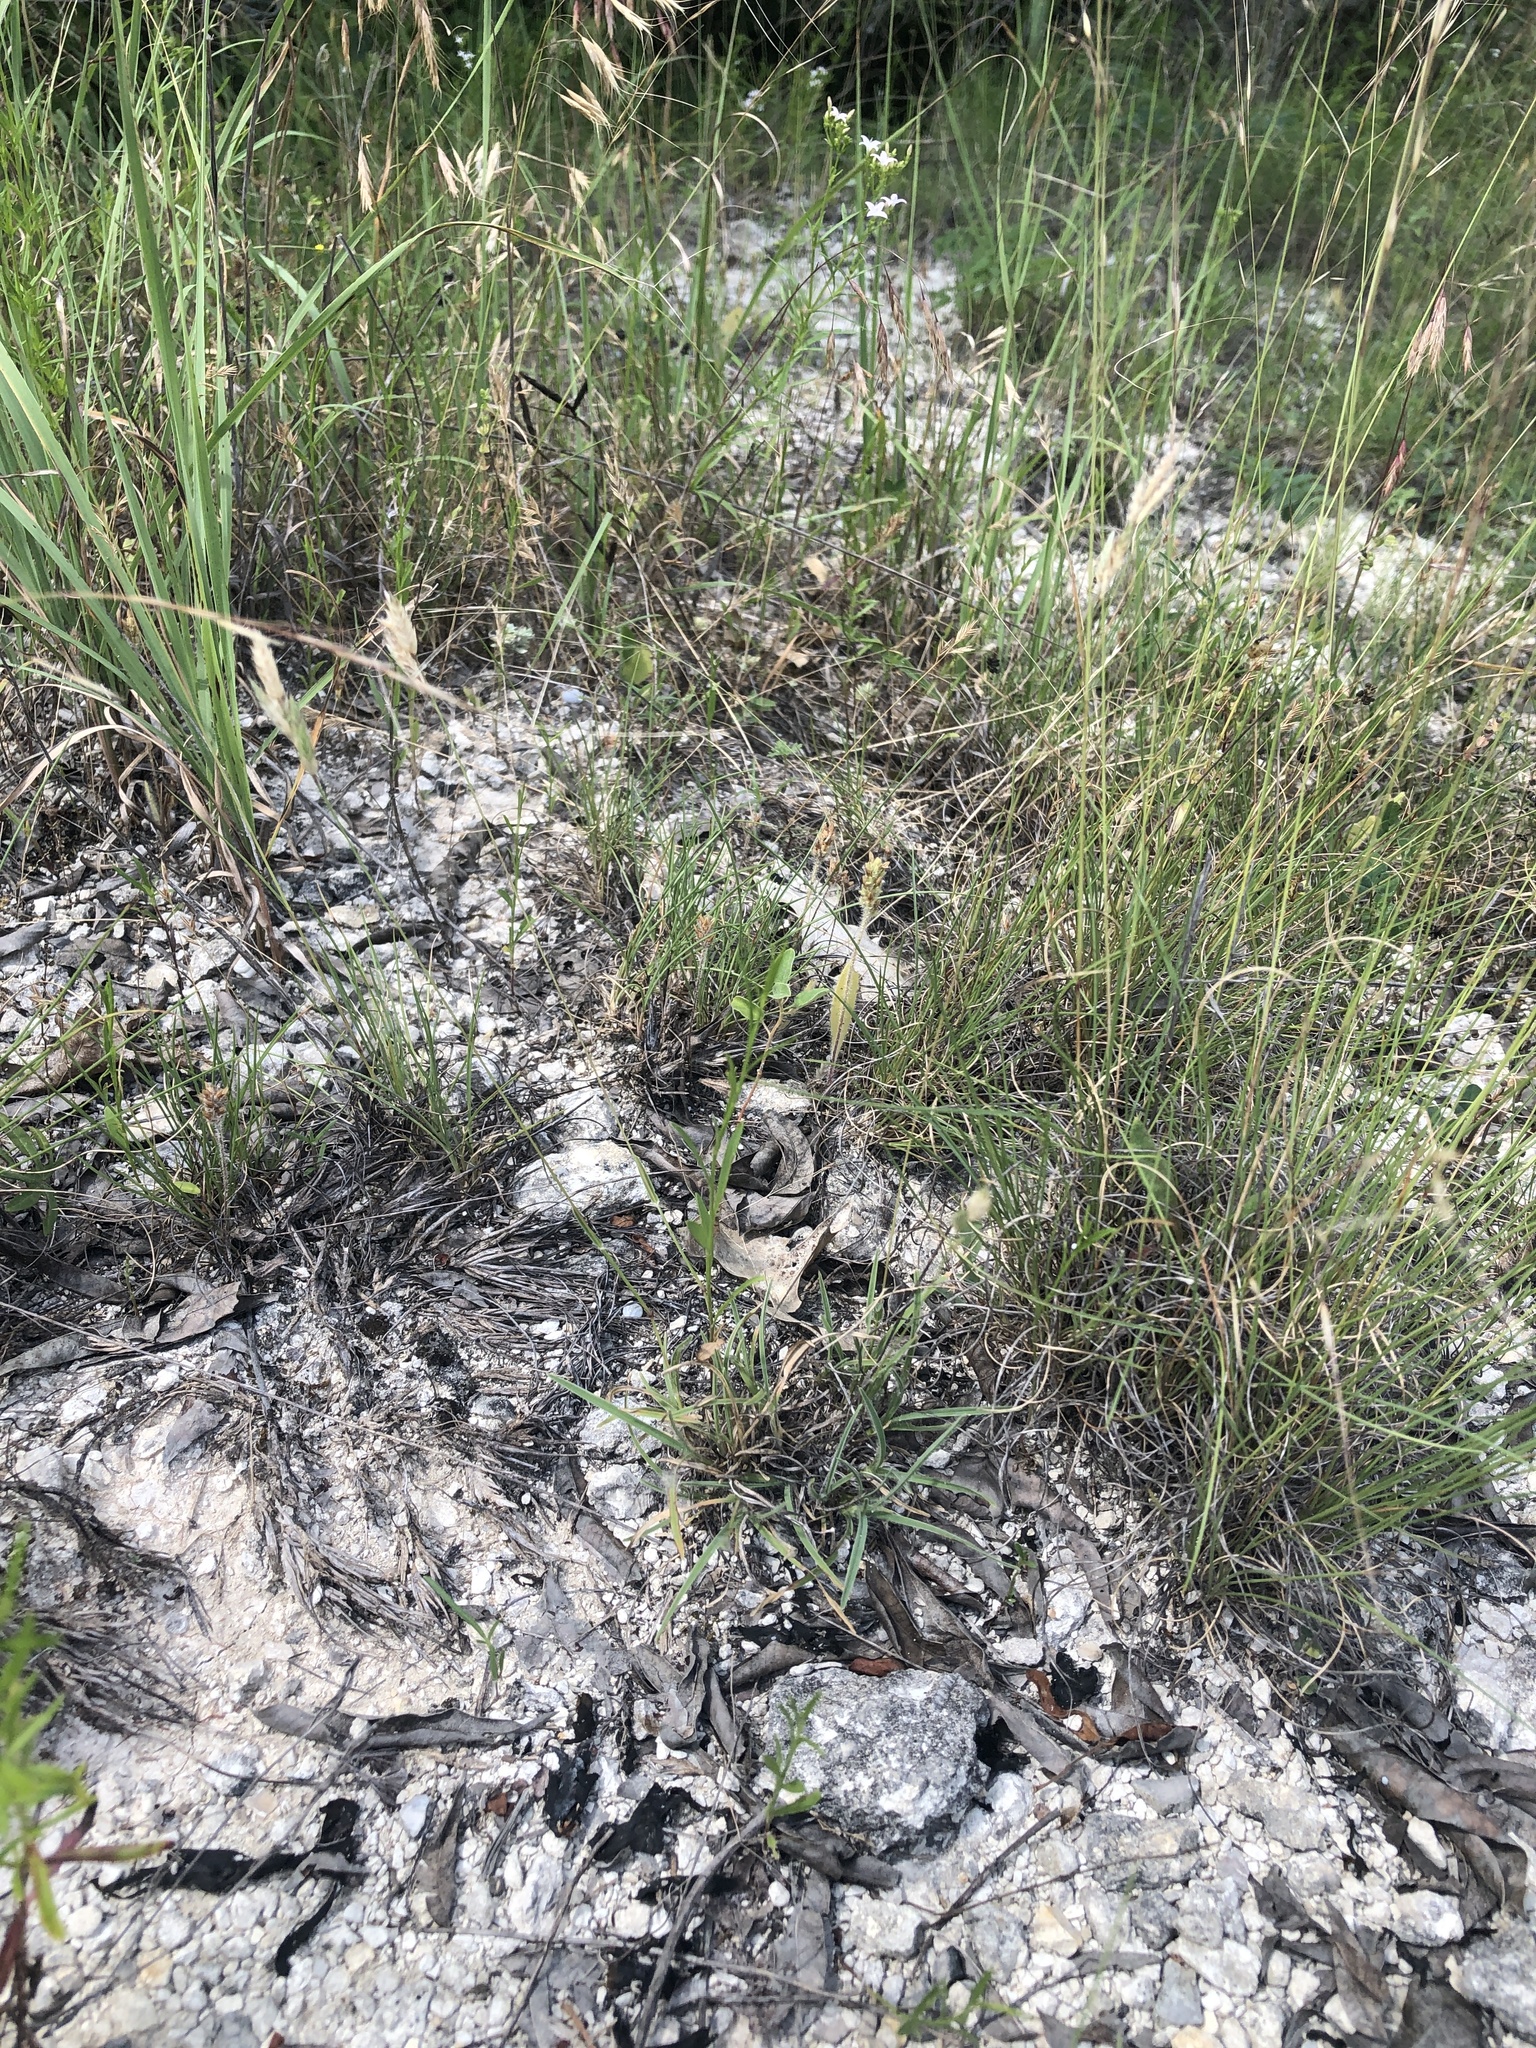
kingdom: Plantae
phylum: Tracheophyta
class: Liliopsida
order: Poales
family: Poaceae
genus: Erioneuron
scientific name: Erioneuron pilosum
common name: Hairy woolly grass
